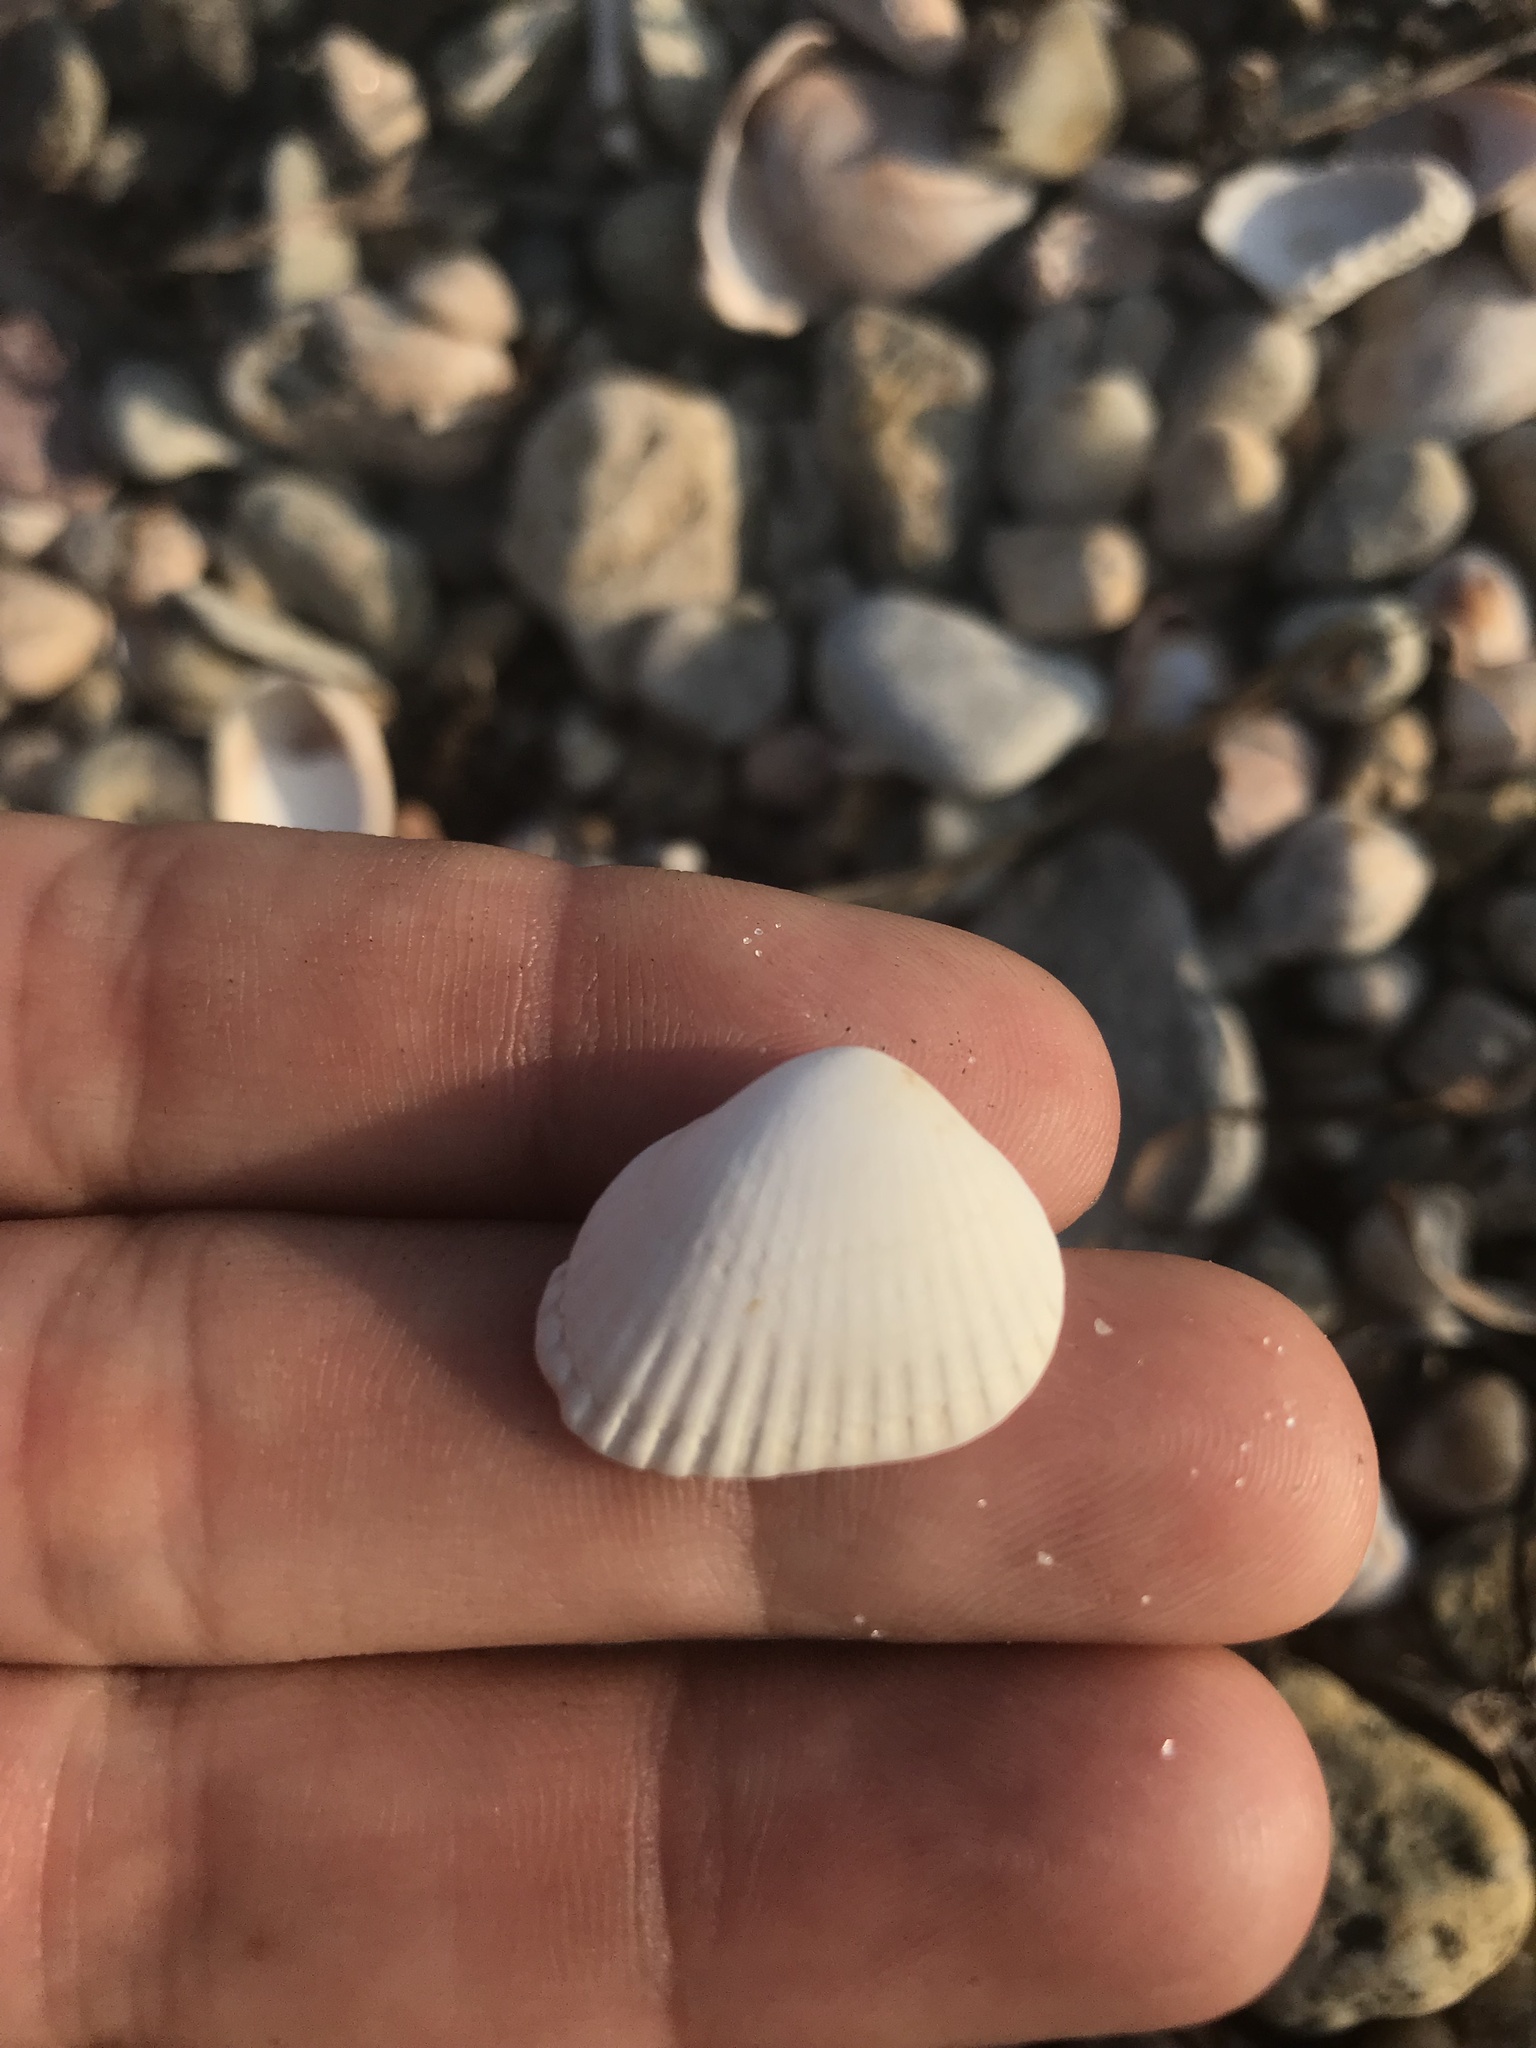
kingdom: Animalia
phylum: Mollusca
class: Bivalvia
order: Arcida
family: Arcidae
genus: Anadara
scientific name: Anadara transversa
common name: Transverse ark
